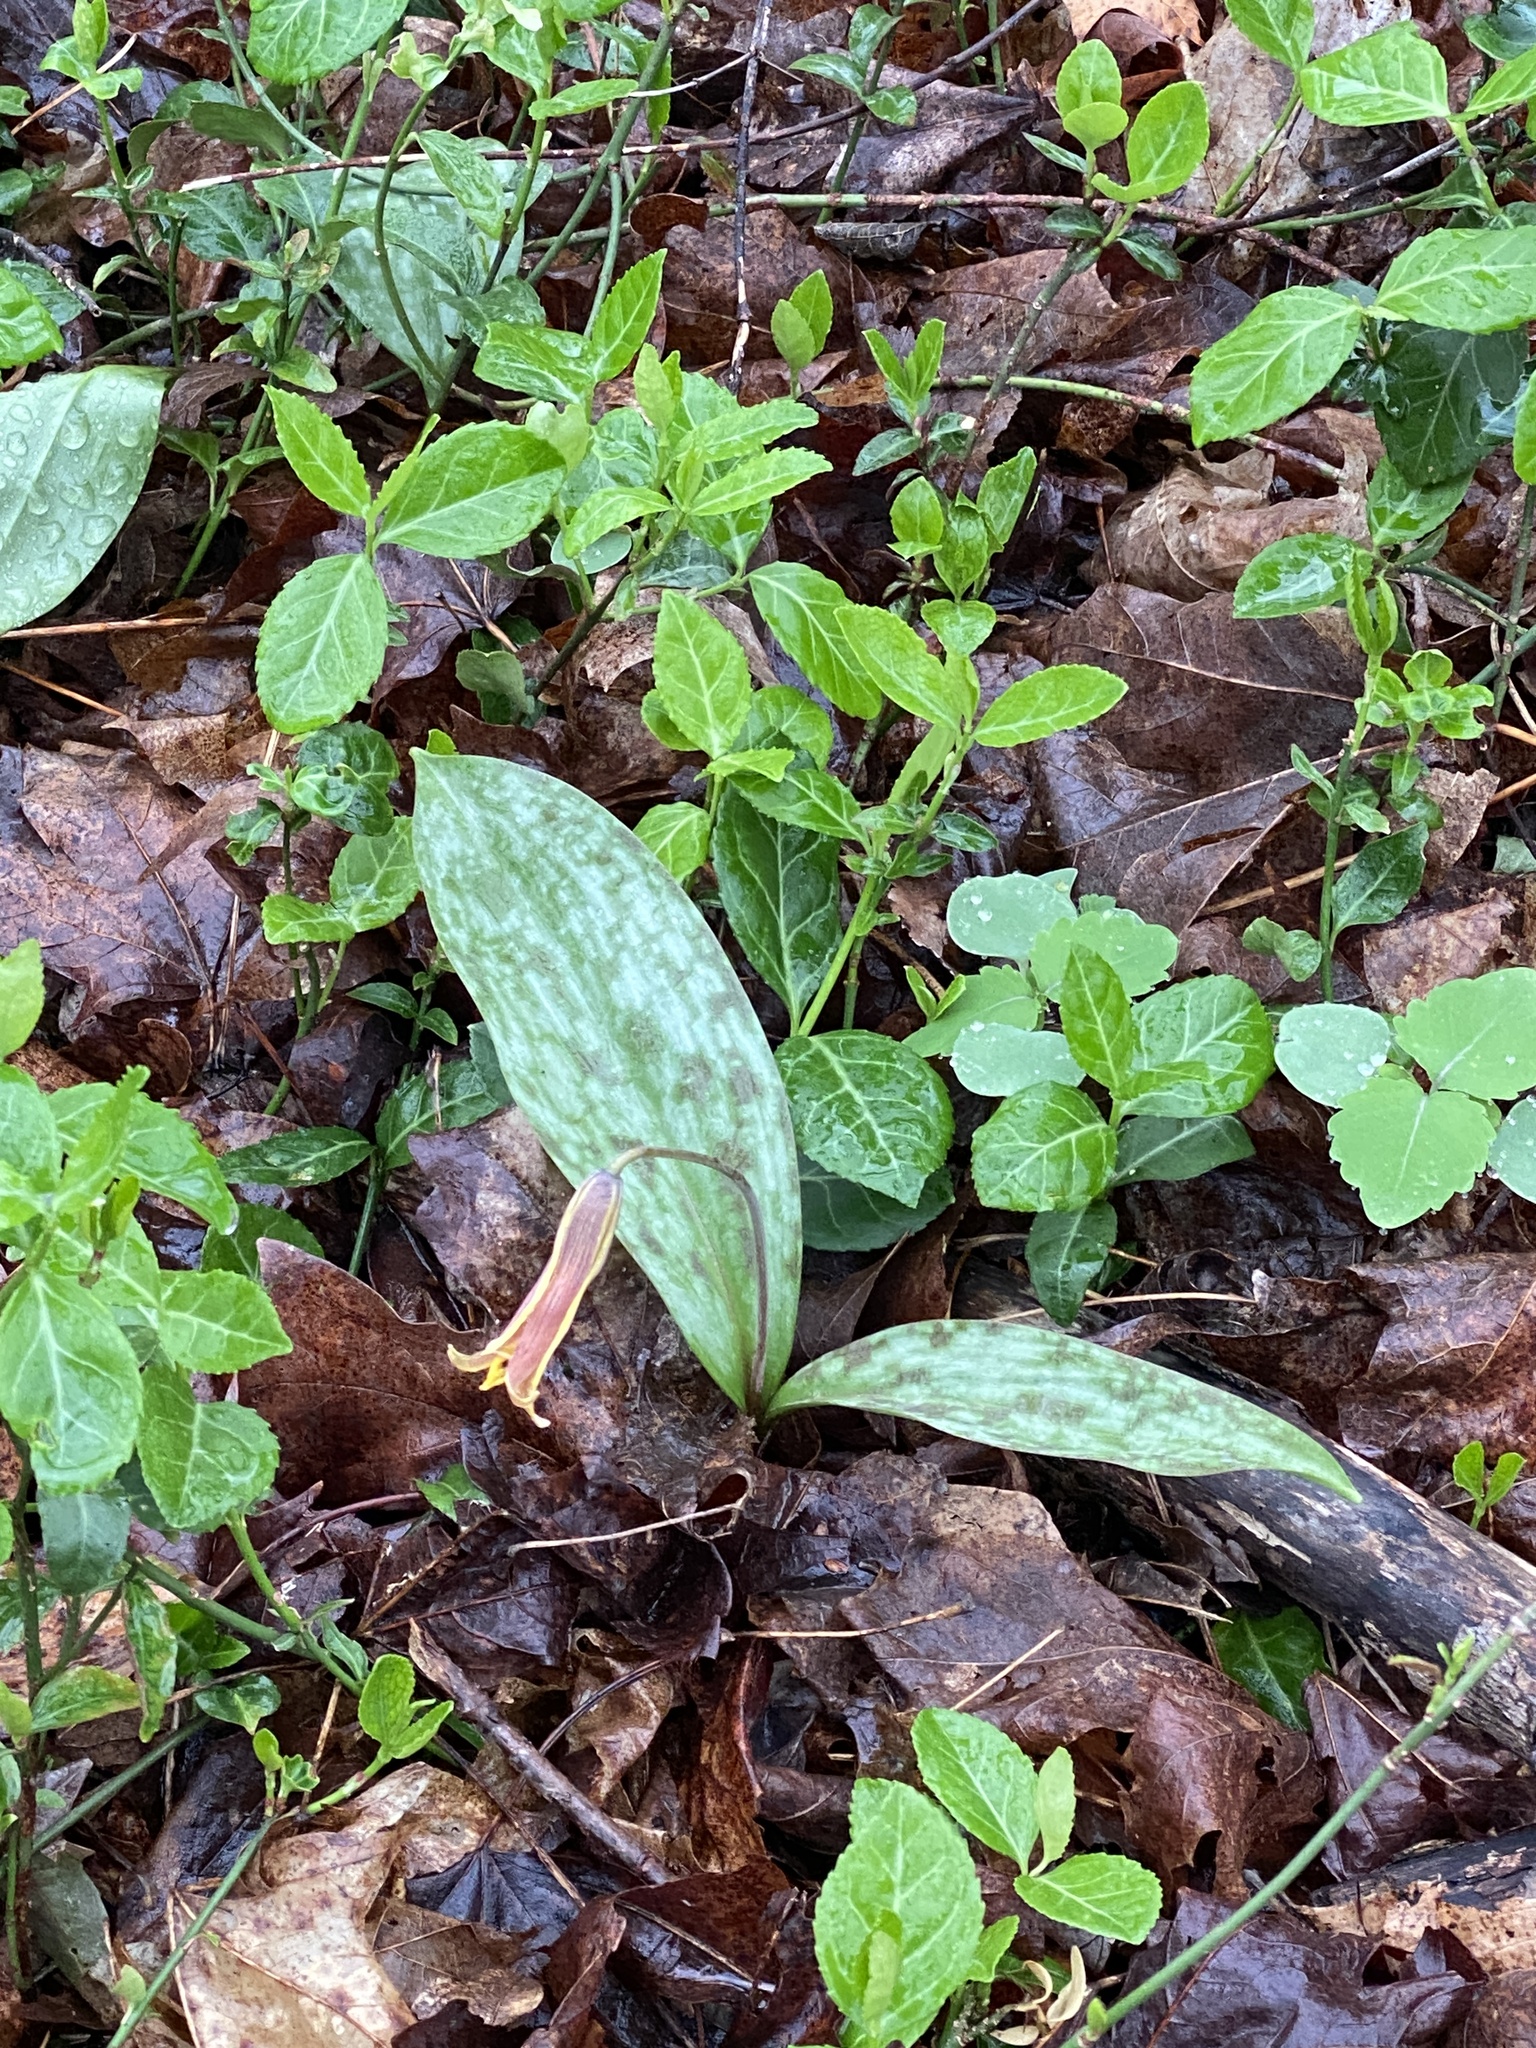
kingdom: Plantae
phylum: Tracheophyta
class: Liliopsida
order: Liliales
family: Liliaceae
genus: Erythronium
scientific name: Erythronium americanum
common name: Yellow adder's-tongue
